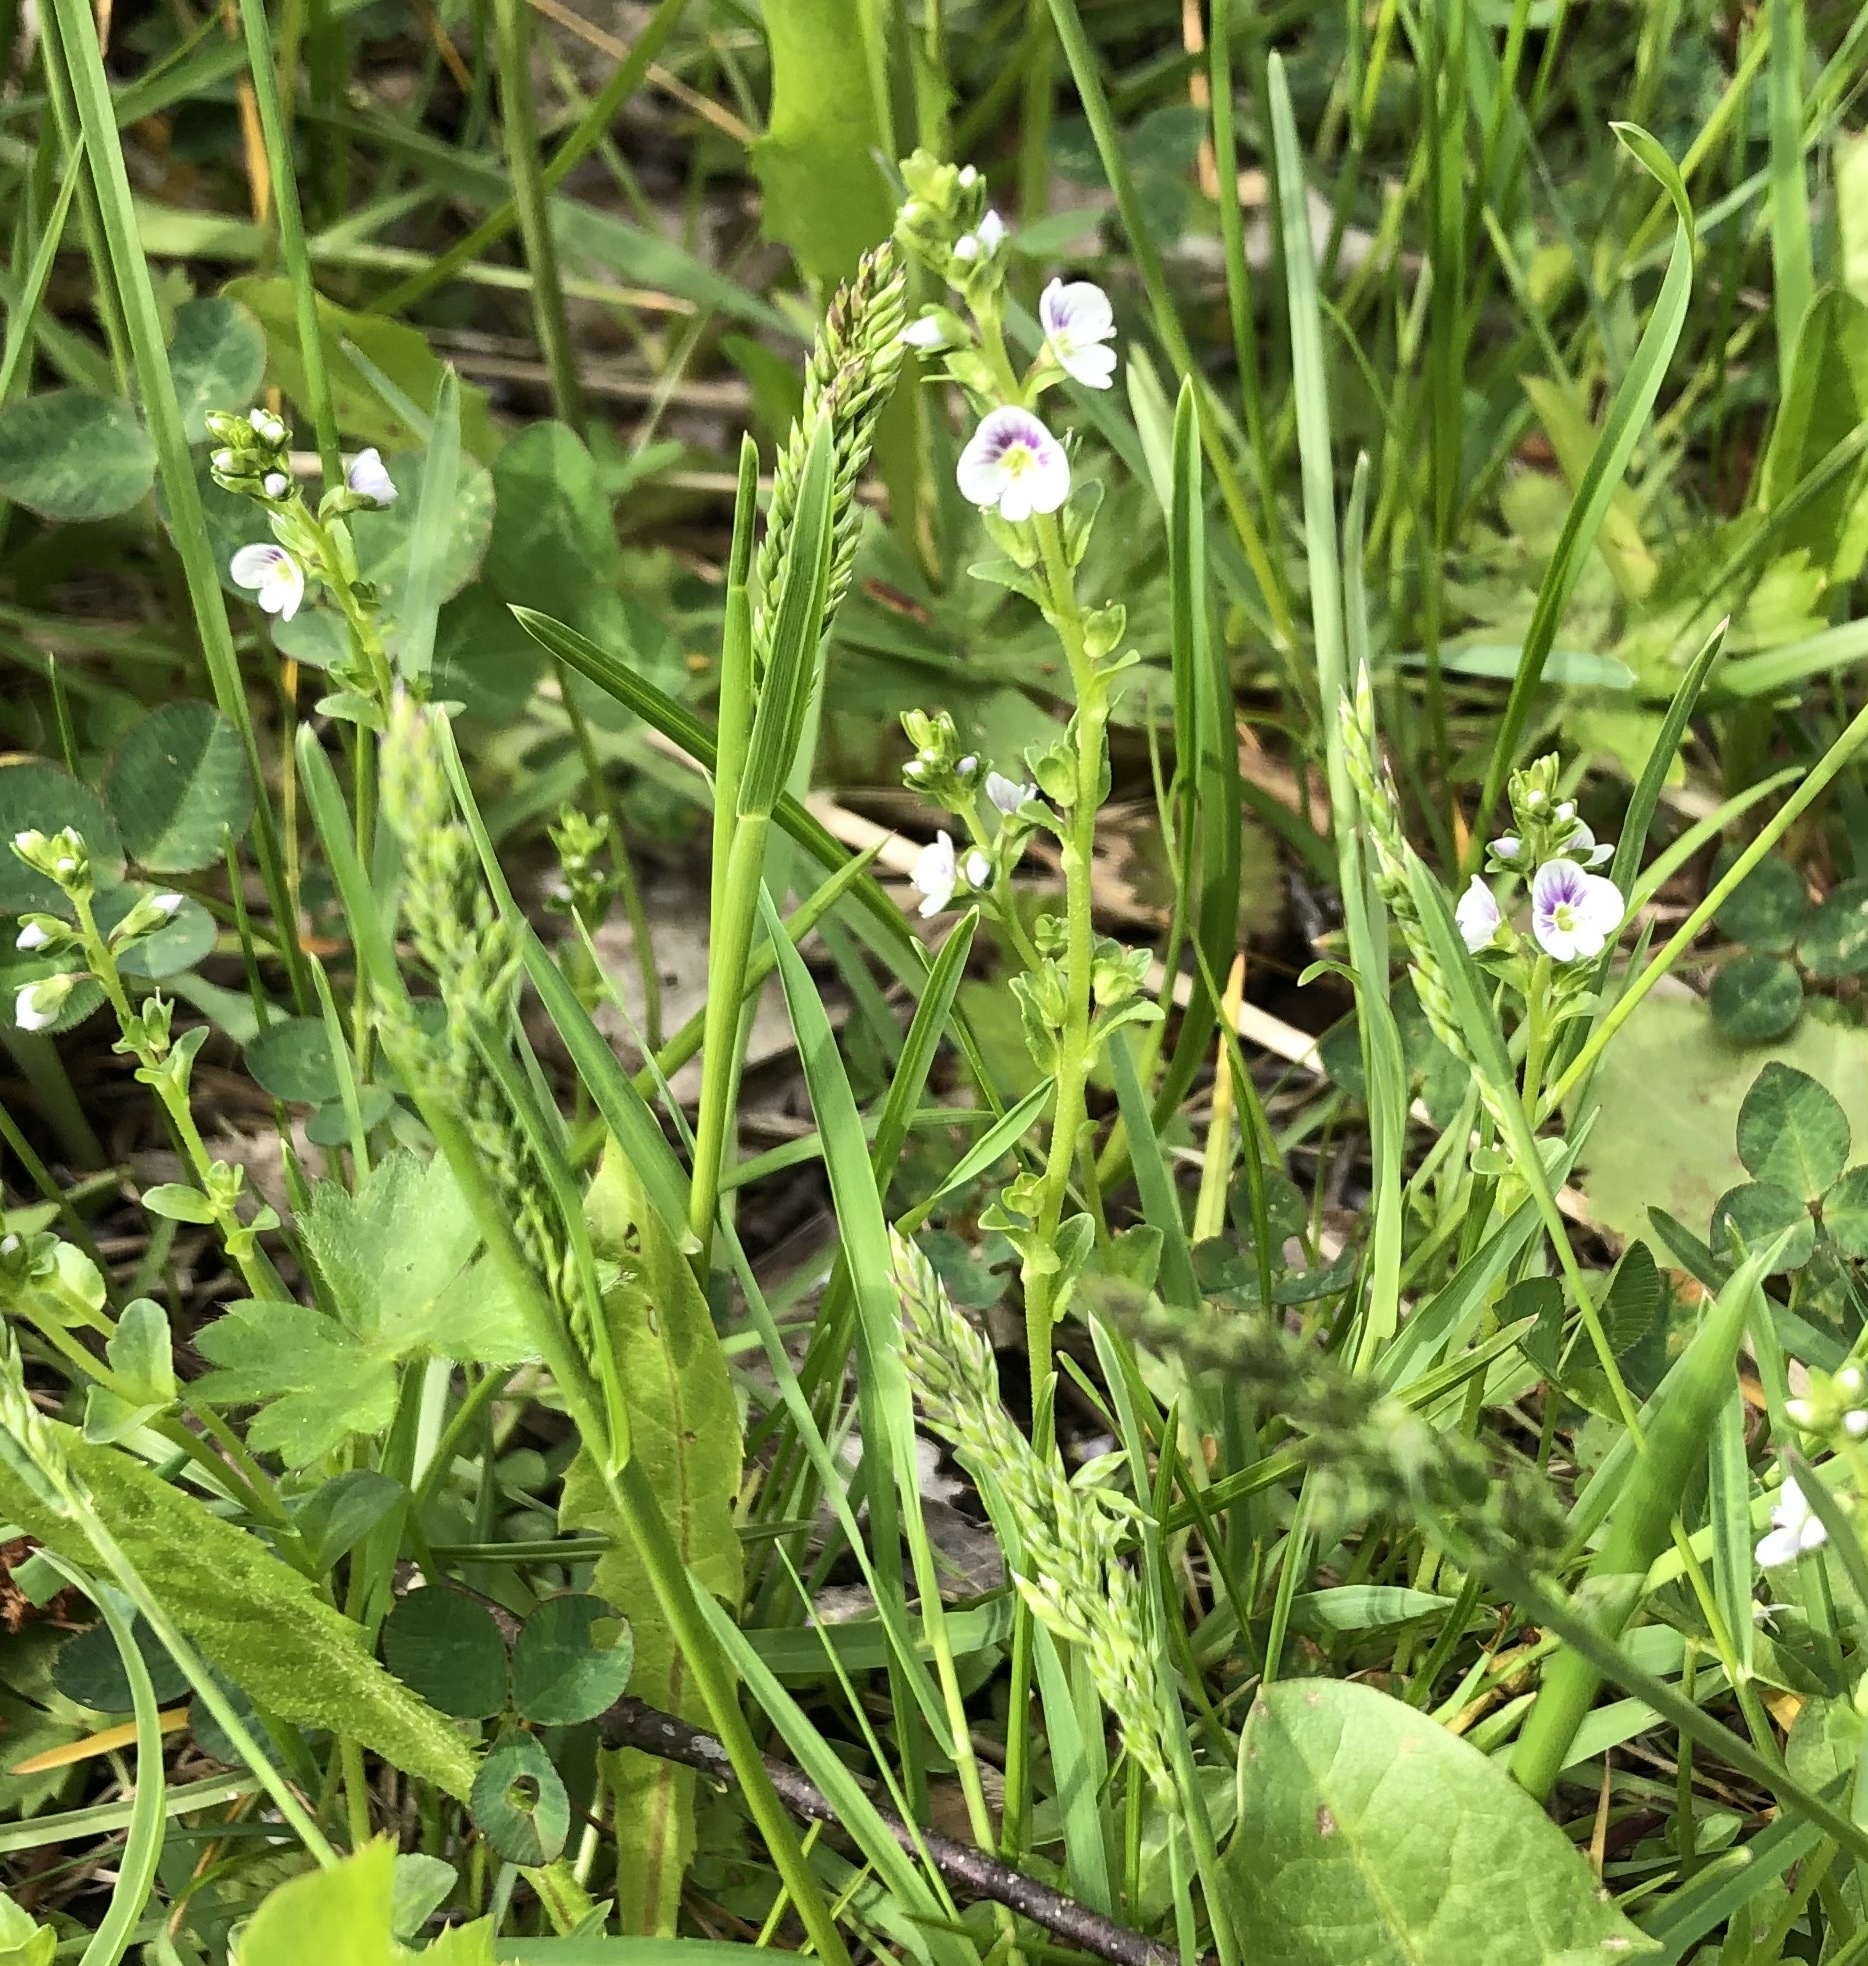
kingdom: Plantae
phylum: Tracheophyta
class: Magnoliopsida
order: Lamiales
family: Plantaginaceae
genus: Veronica
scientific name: Veronica serpyllifolia
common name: Thyme-leaved speedwell
